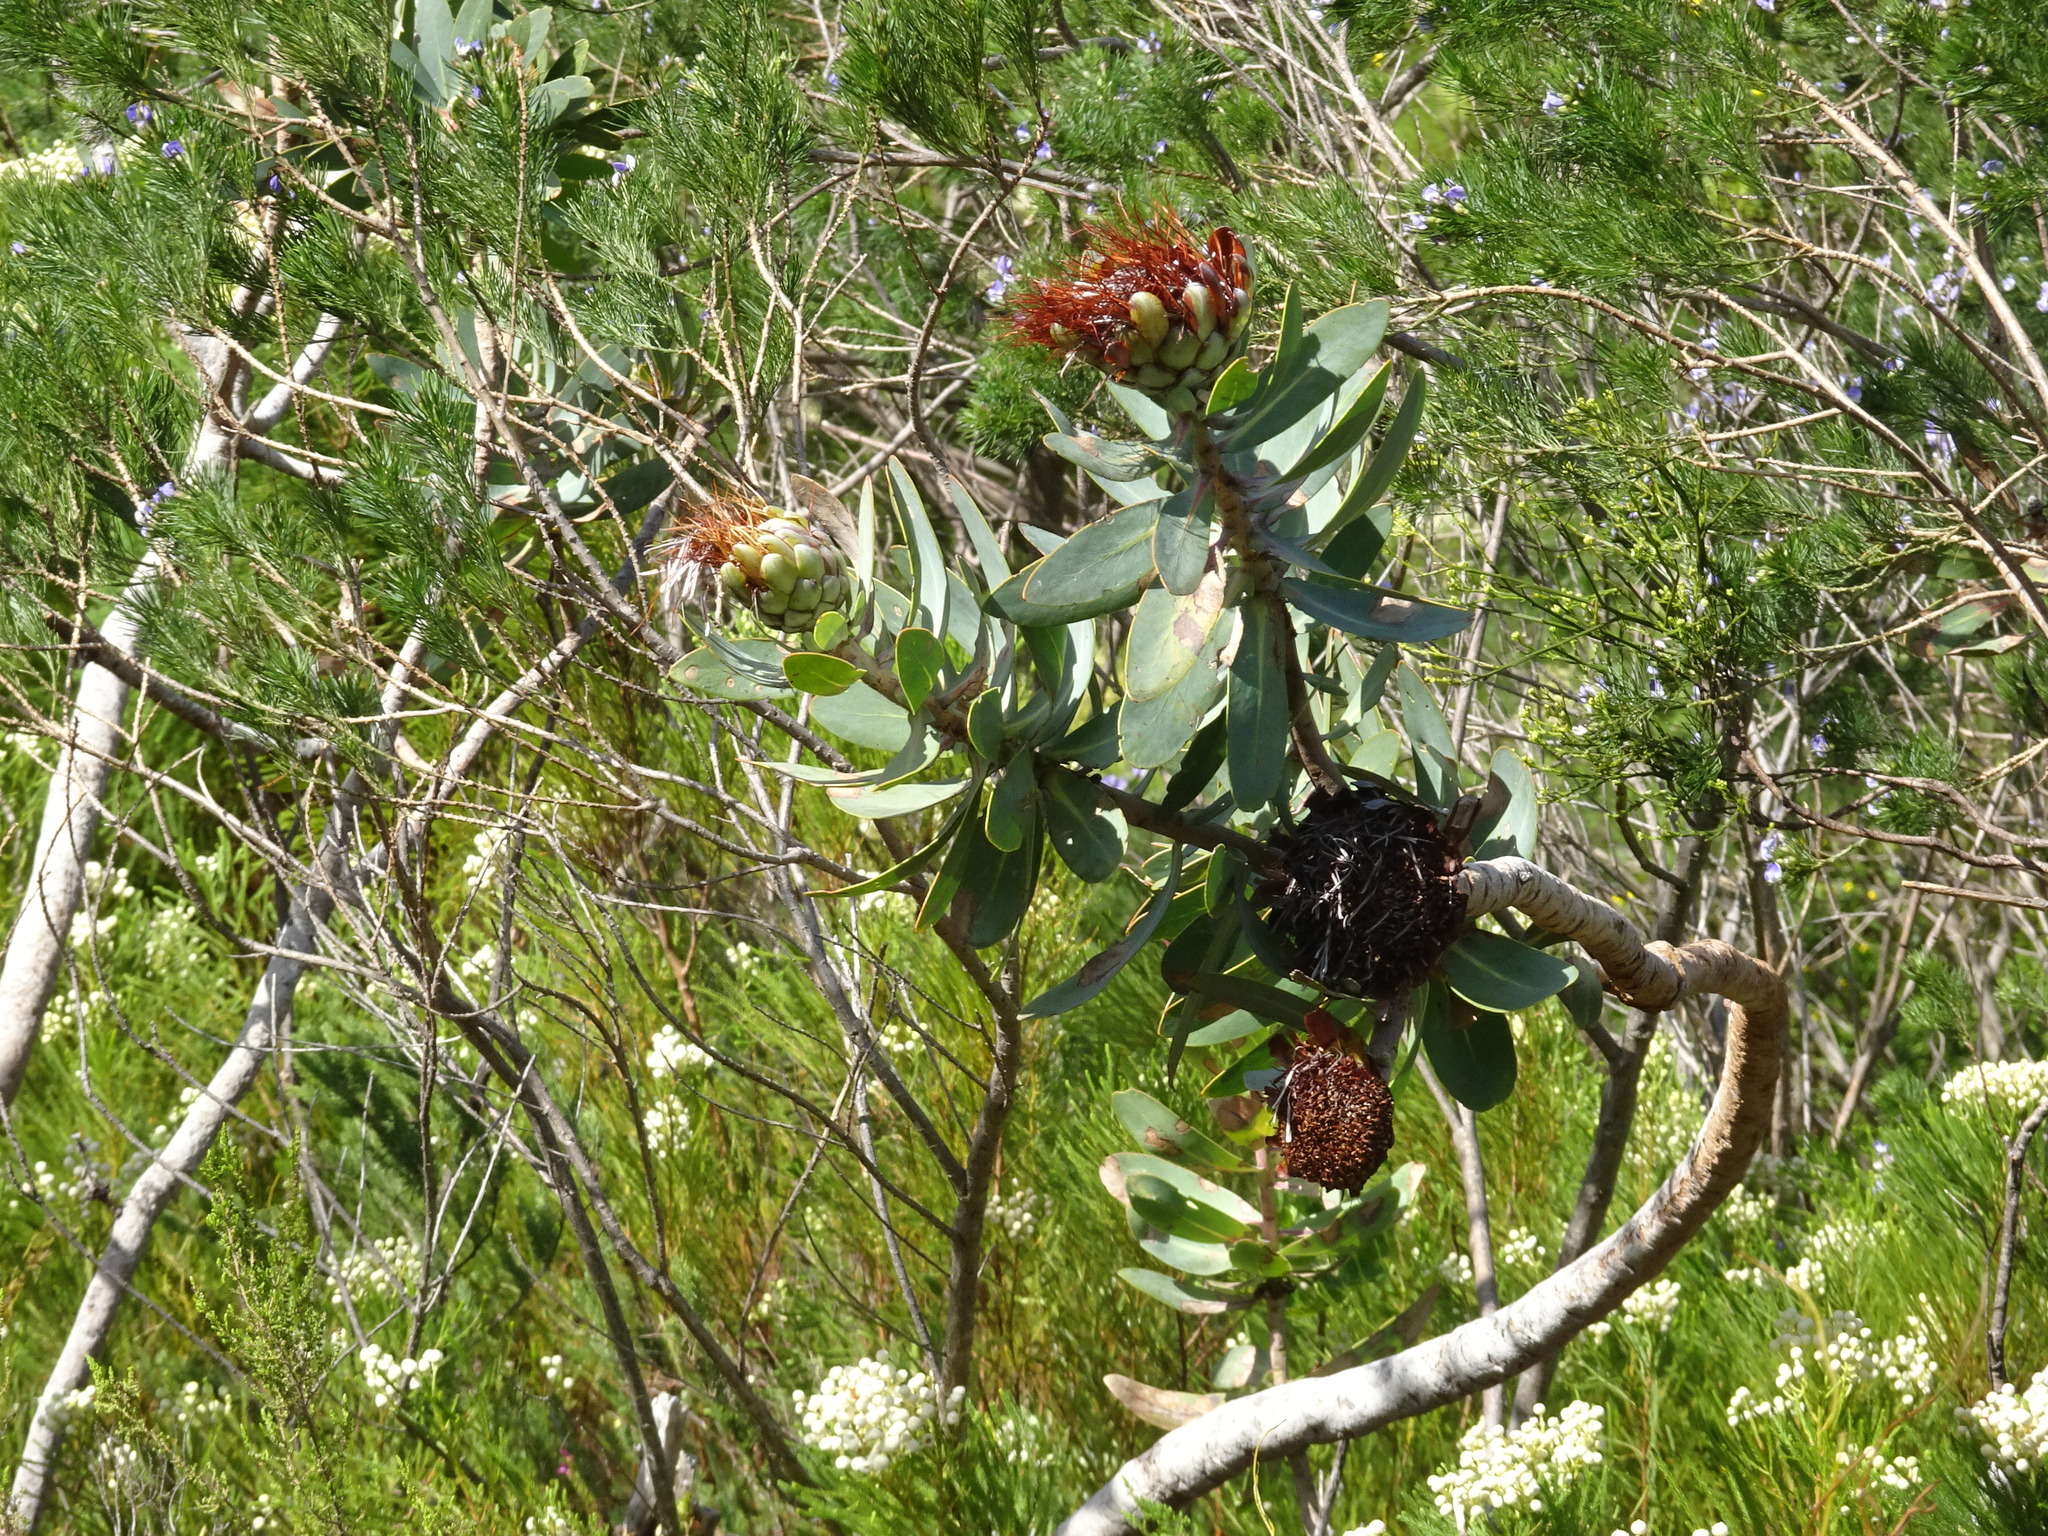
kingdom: Plantae
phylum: Tracheophyta
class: Magnoliopsida
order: Proteales
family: Proteaceae
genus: Protea
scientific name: Protea nitida
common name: Tree protea
